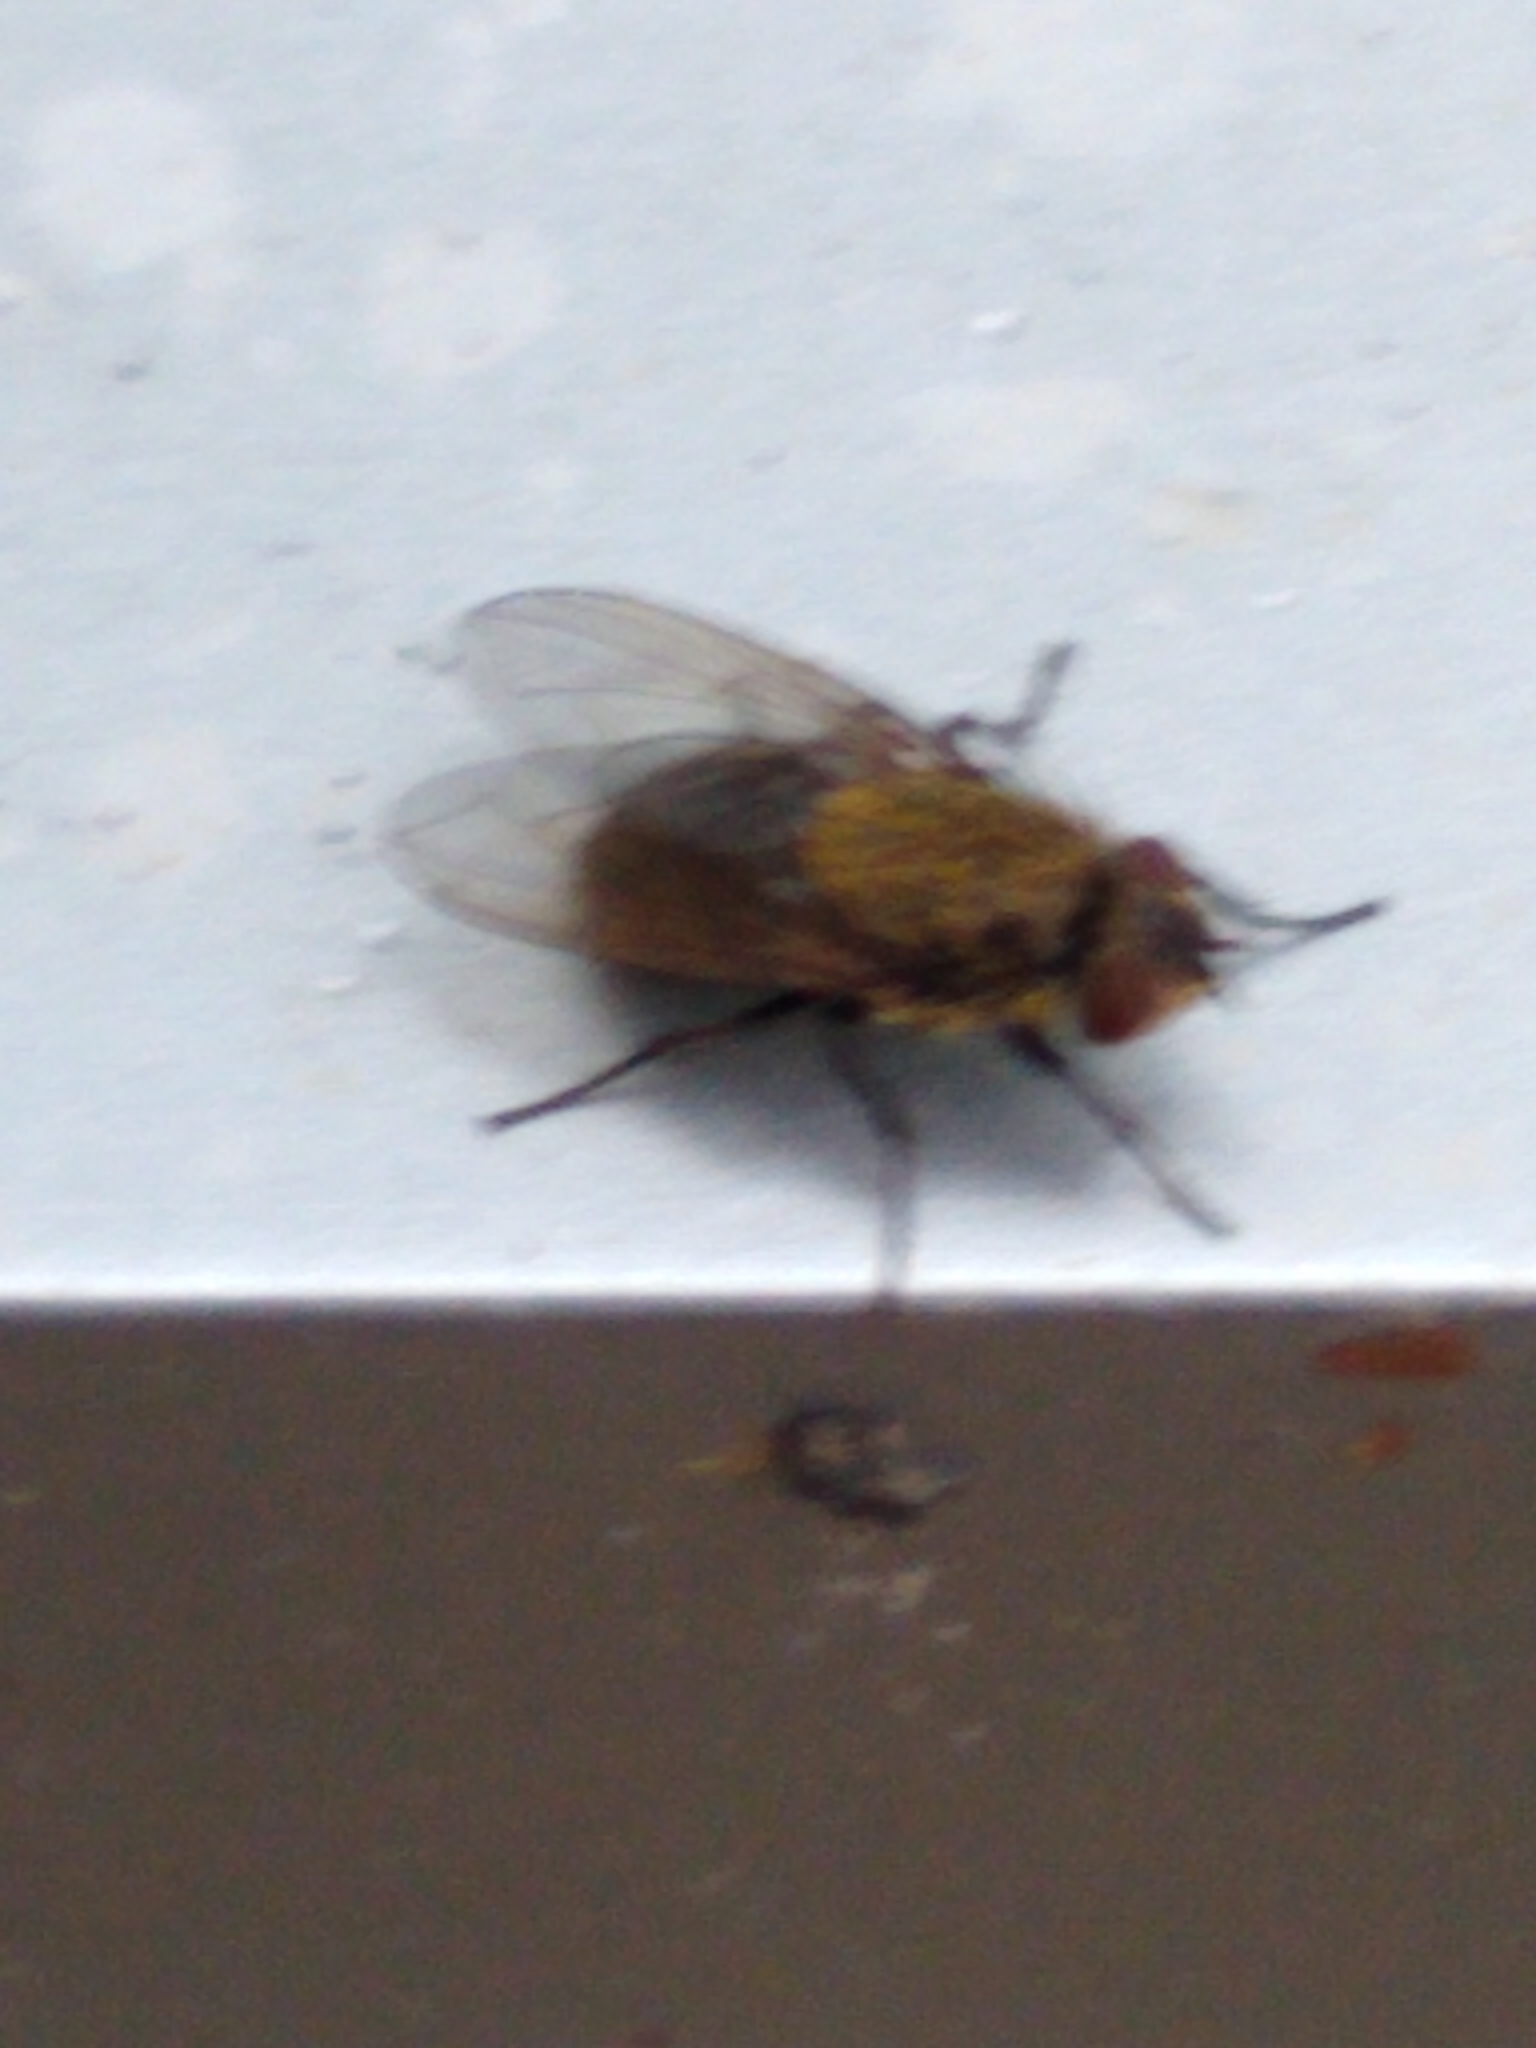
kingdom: Animalia
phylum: Arthropoda
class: Insecta
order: Diptera
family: Polleniidae
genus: Pollenia
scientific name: Pollenia
